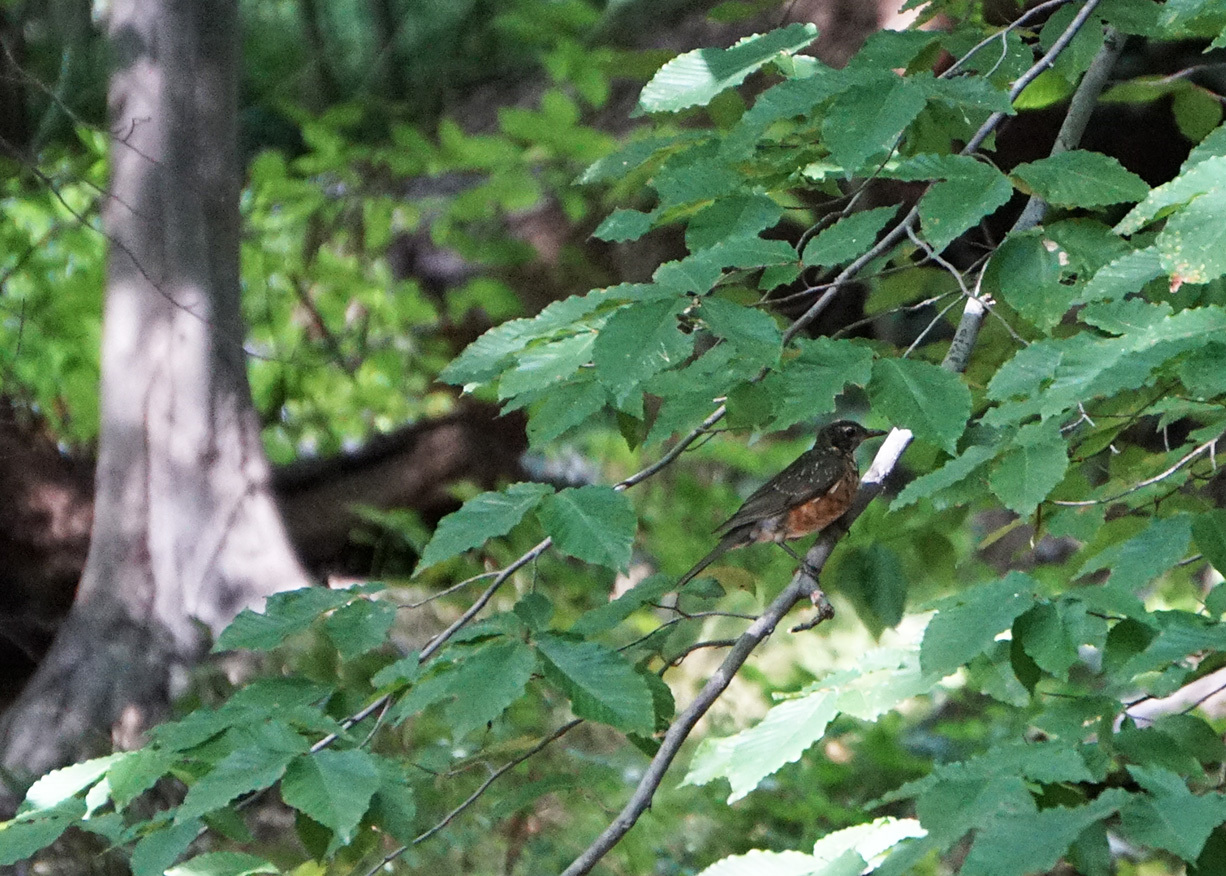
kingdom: Animalia
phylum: Chordata
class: Aves
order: Passeriformes
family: Turdidae
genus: Turdus
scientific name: Turdus migratorius
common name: American robin
